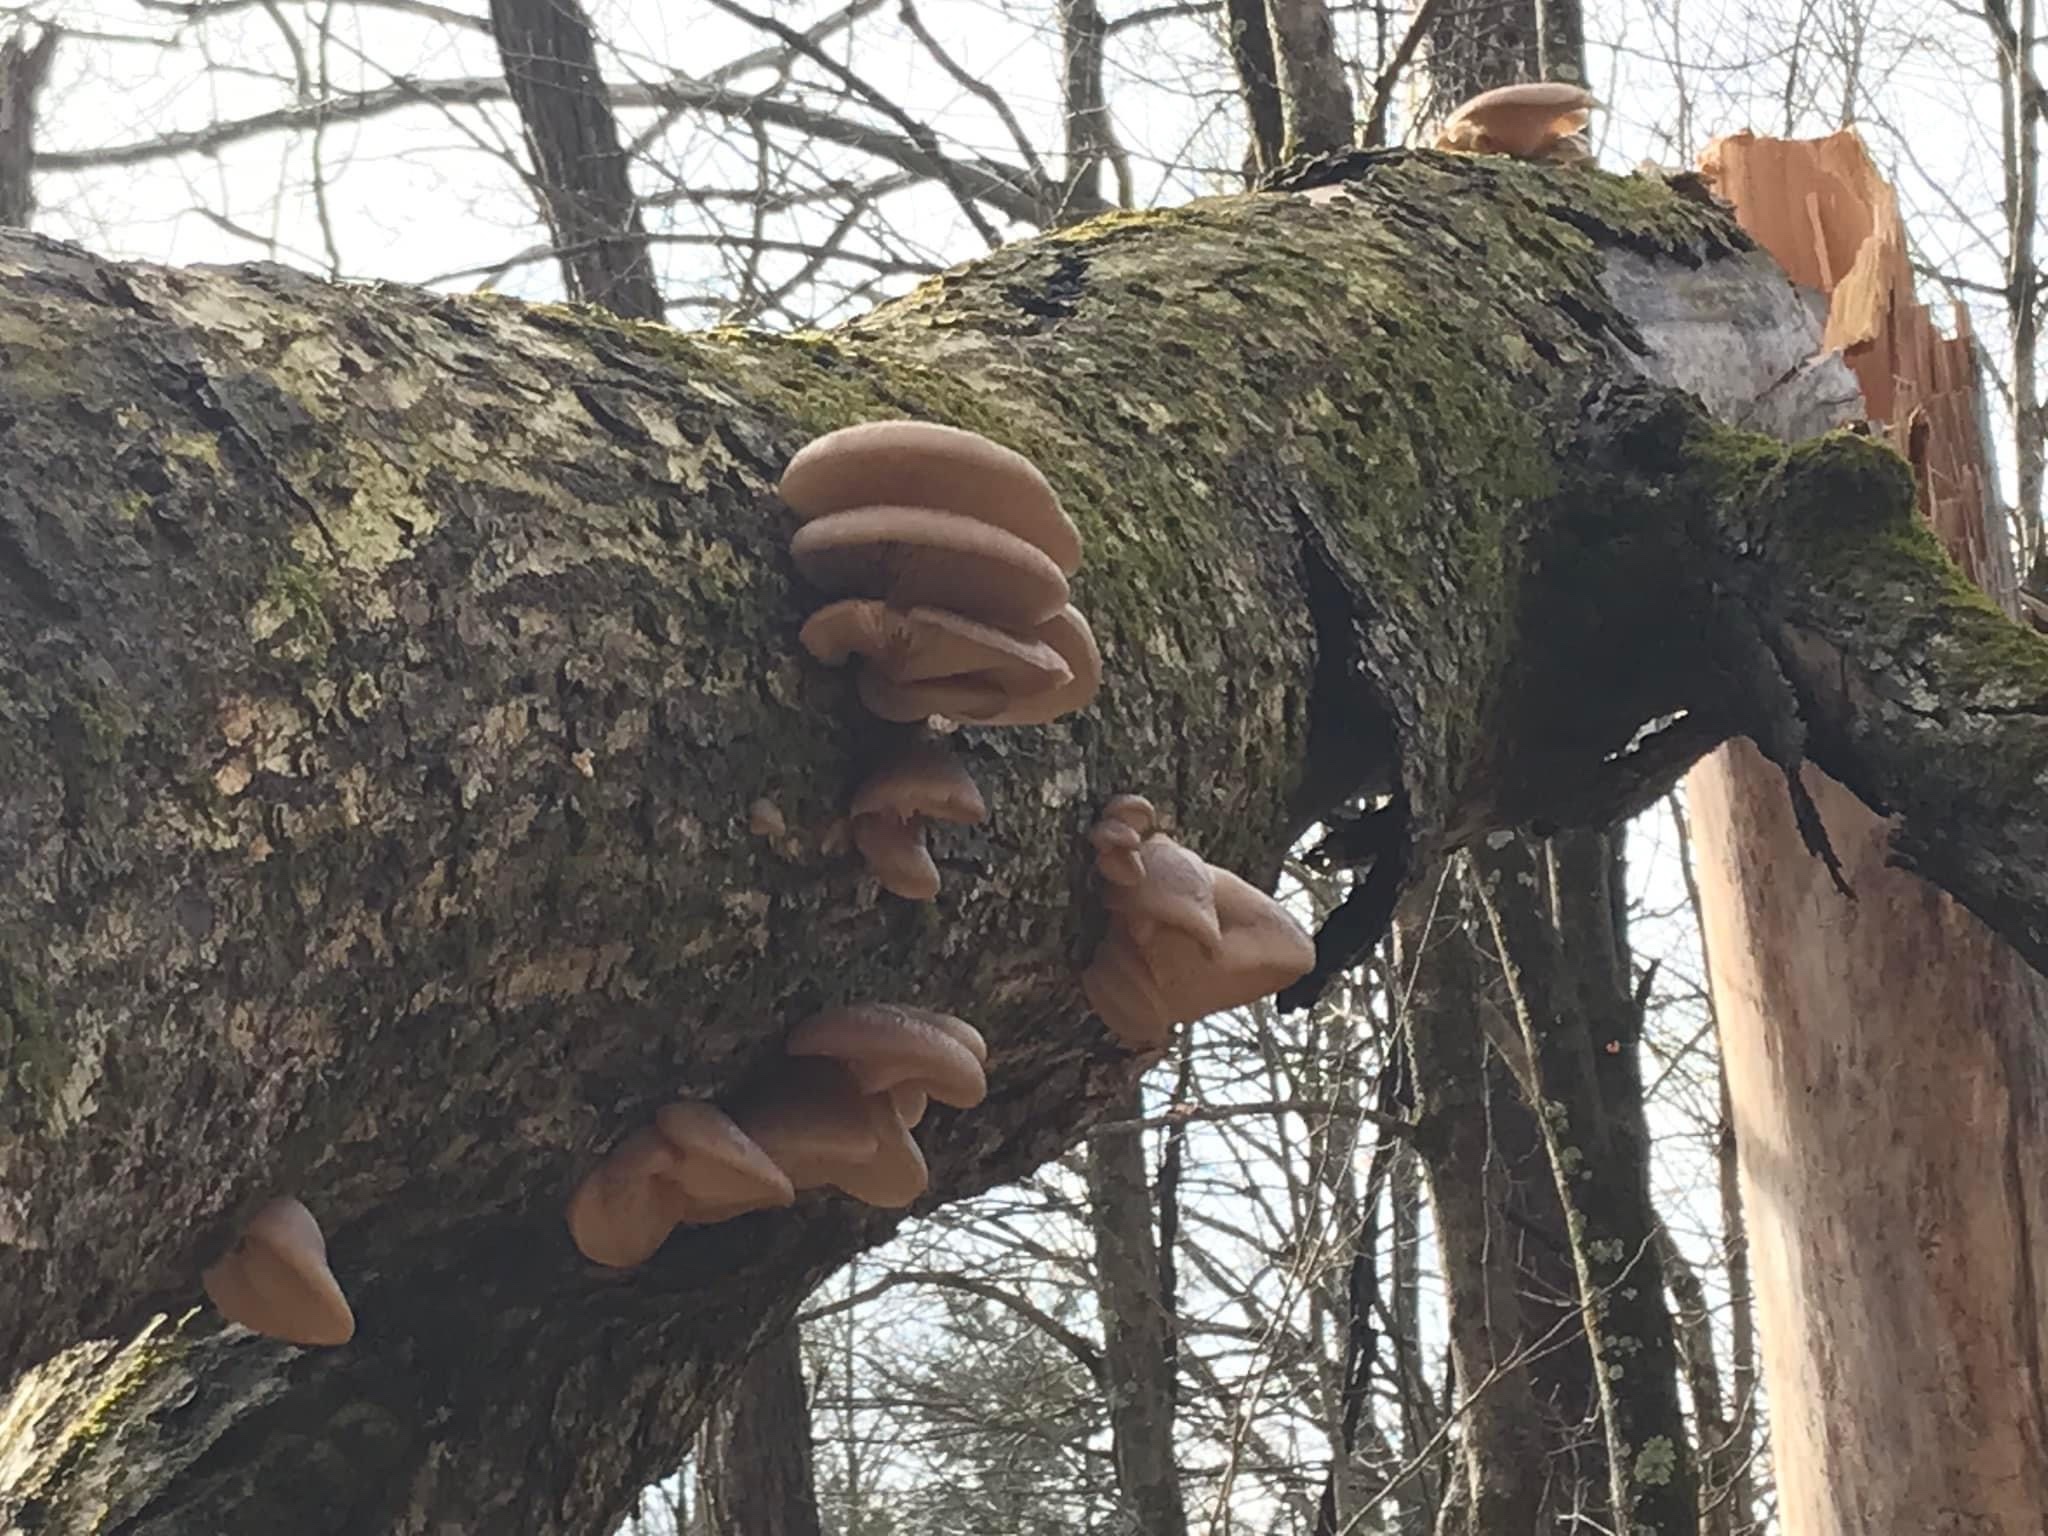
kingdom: Fungi
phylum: Basidiomycota
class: Agaricomycetes
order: Agaricales
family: Pleurotaceae
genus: Pleurotus
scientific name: Pleurotus ostreatus
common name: Oyster mushroom
